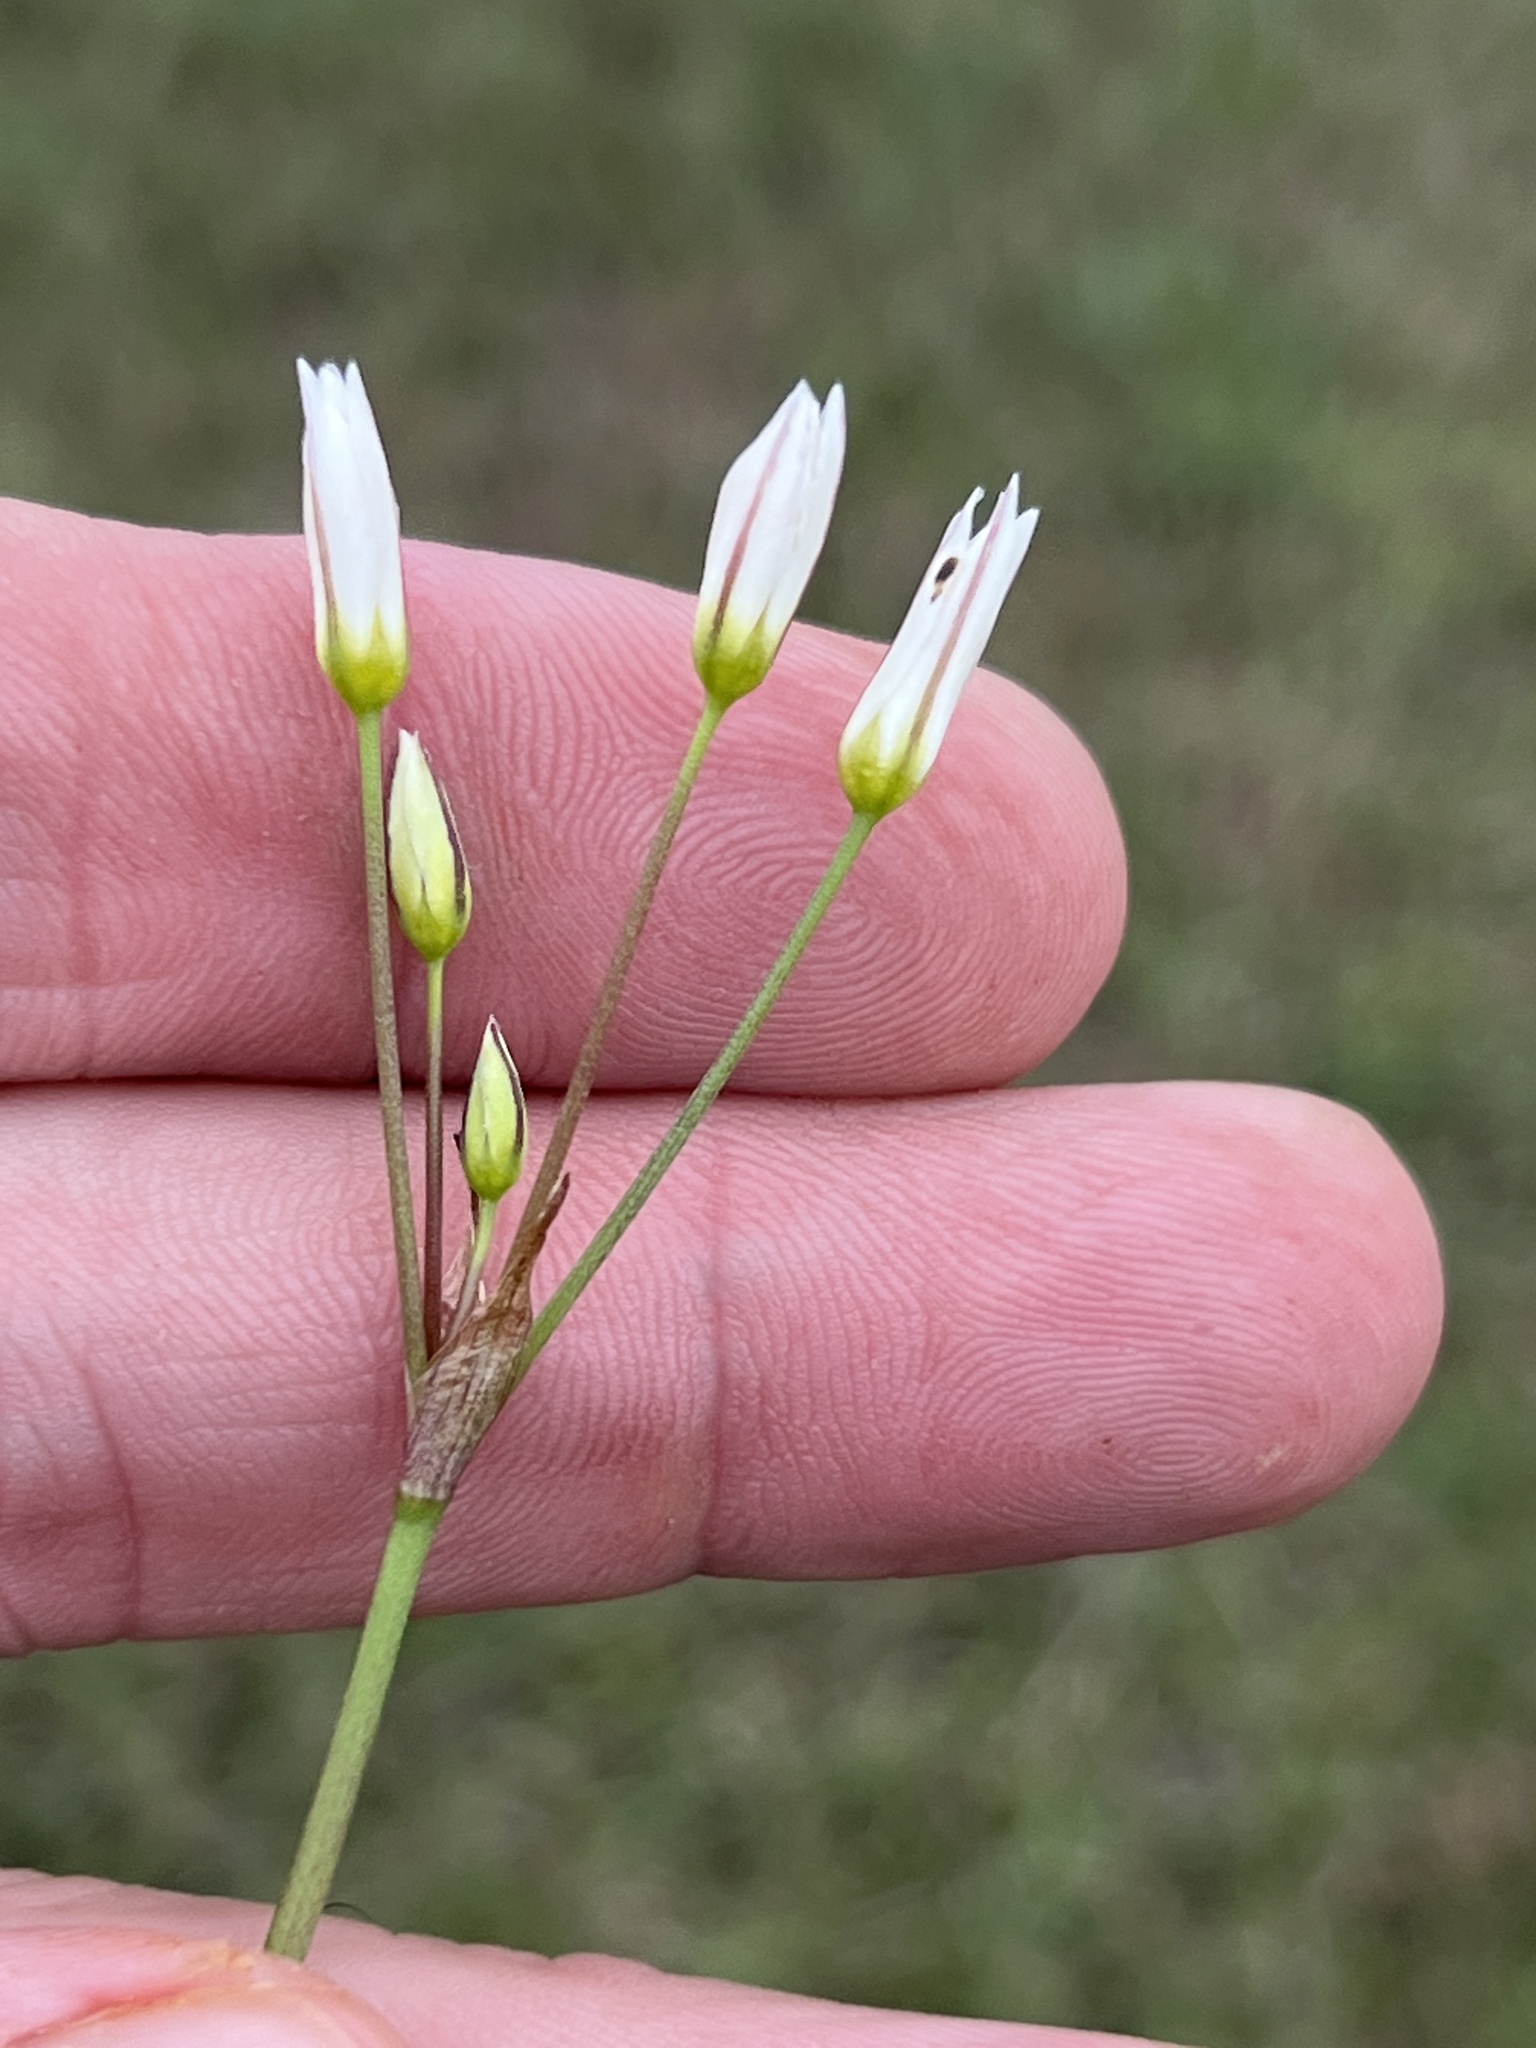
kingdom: Plantae
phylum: Tracheophyta
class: Liliopsida
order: Asparagales
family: Amaryllidaceae
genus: Nothoscordum
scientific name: Nothoscordum bivalve
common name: Crow-poison
